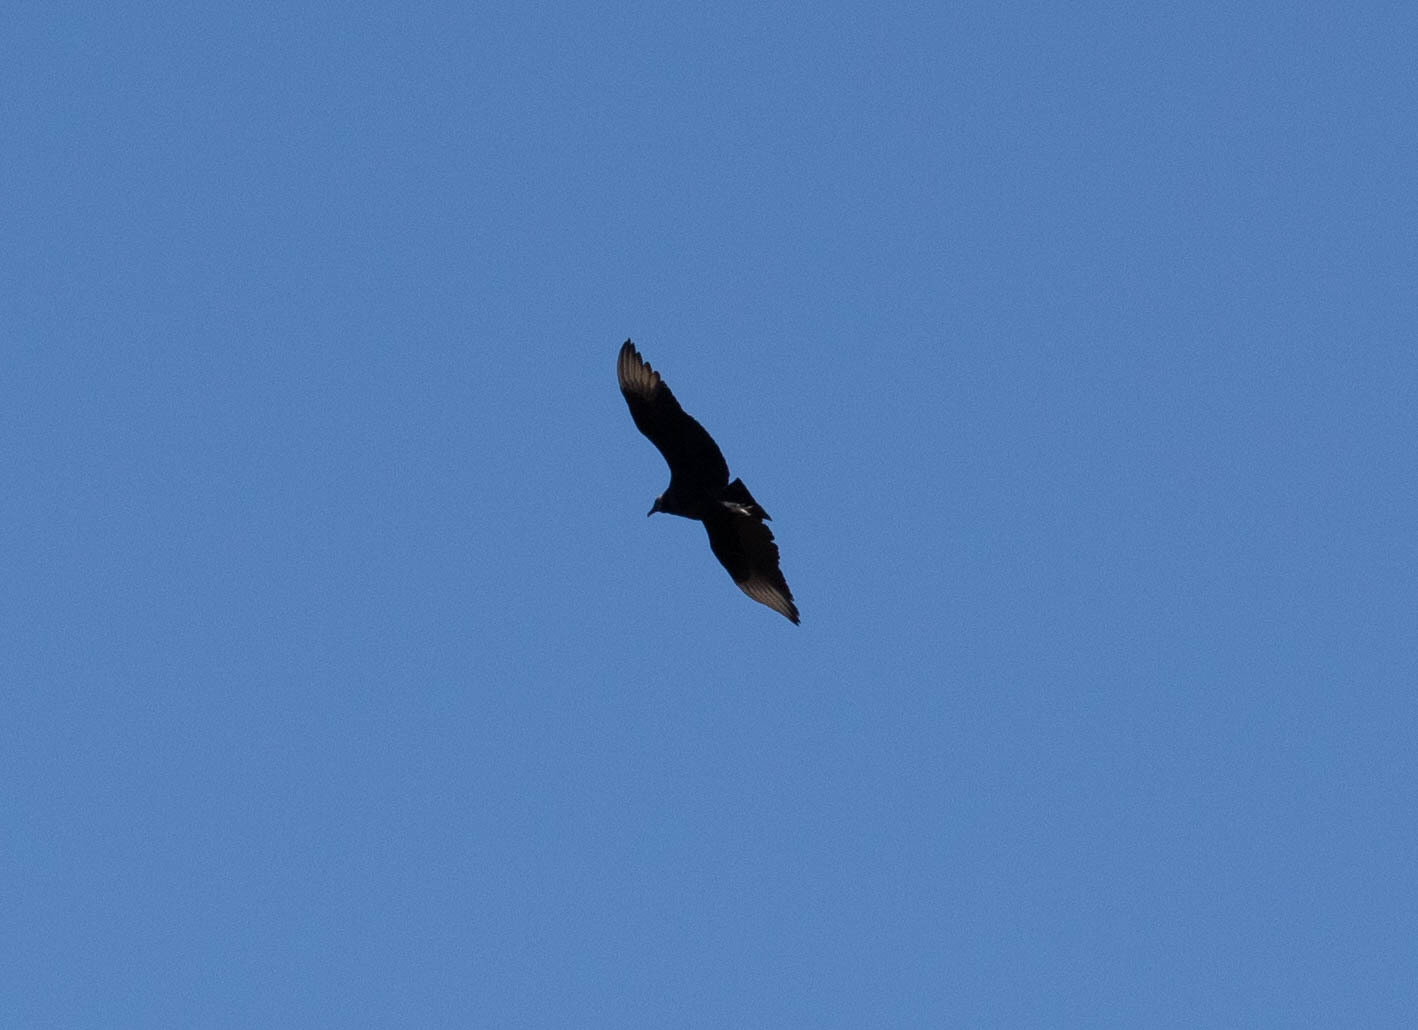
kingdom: Animalia
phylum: Chordata
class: Aves
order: Accipitriformes
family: Cathartidae
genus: Coragyps
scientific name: Coragyps atratus
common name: Black vulture
